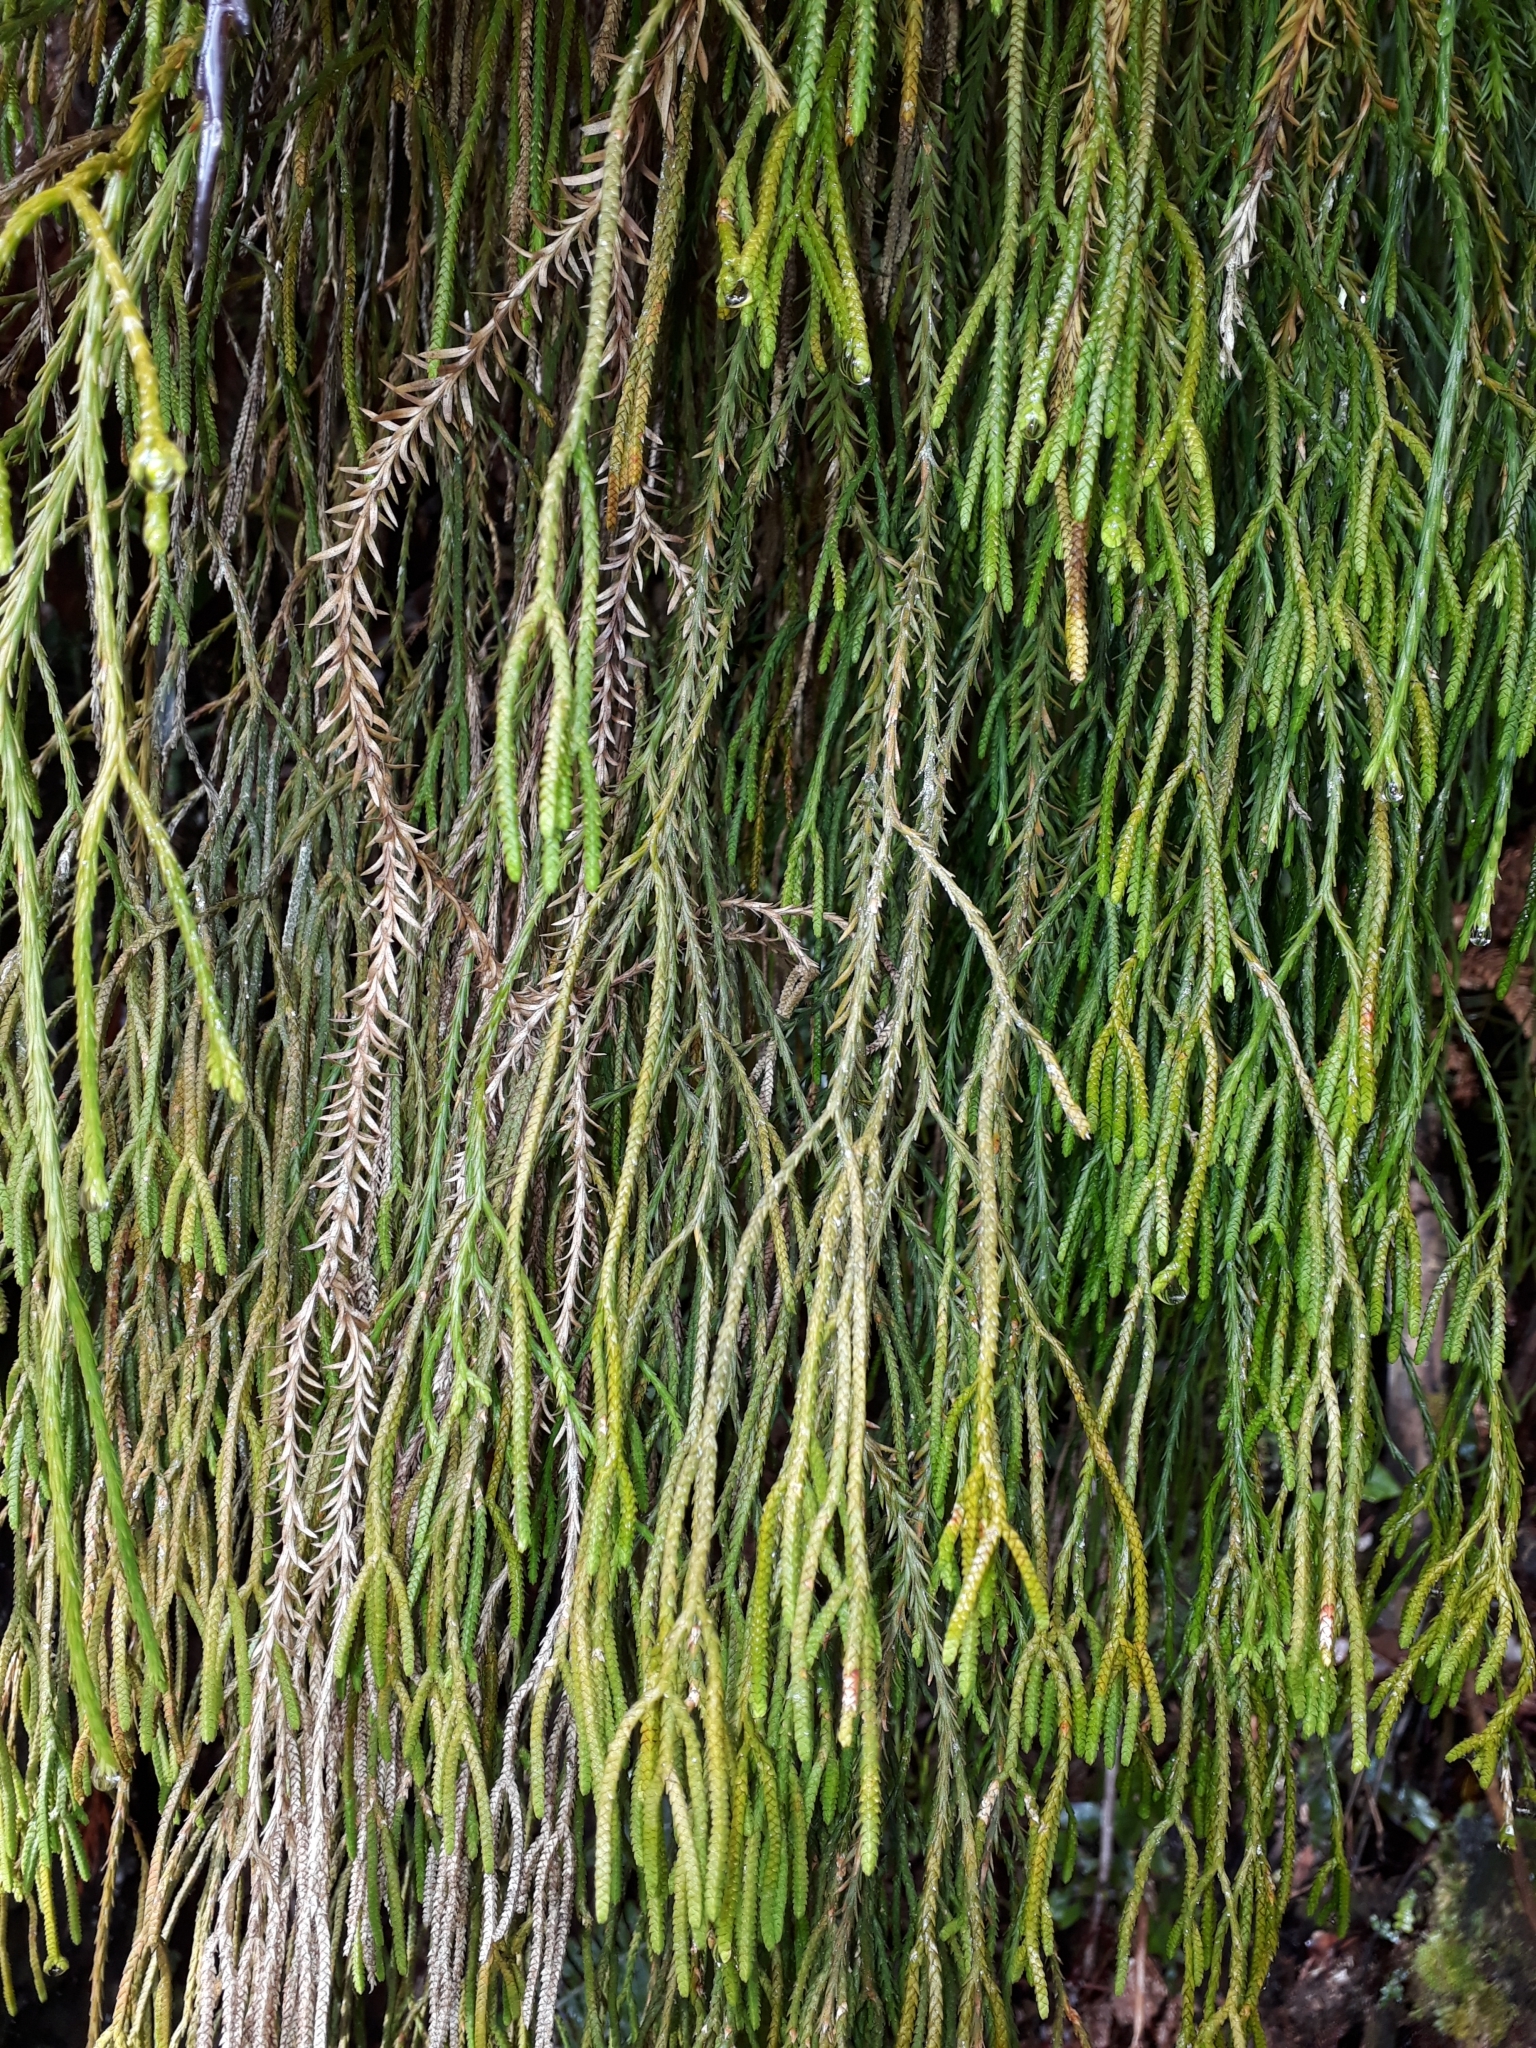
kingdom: Plantae
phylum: Tracheophyta
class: Lycopodiopsida
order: Lycopodiales
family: Lycopodiaceae
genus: Phlegmariurus
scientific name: Phlegmariurus billardierei
